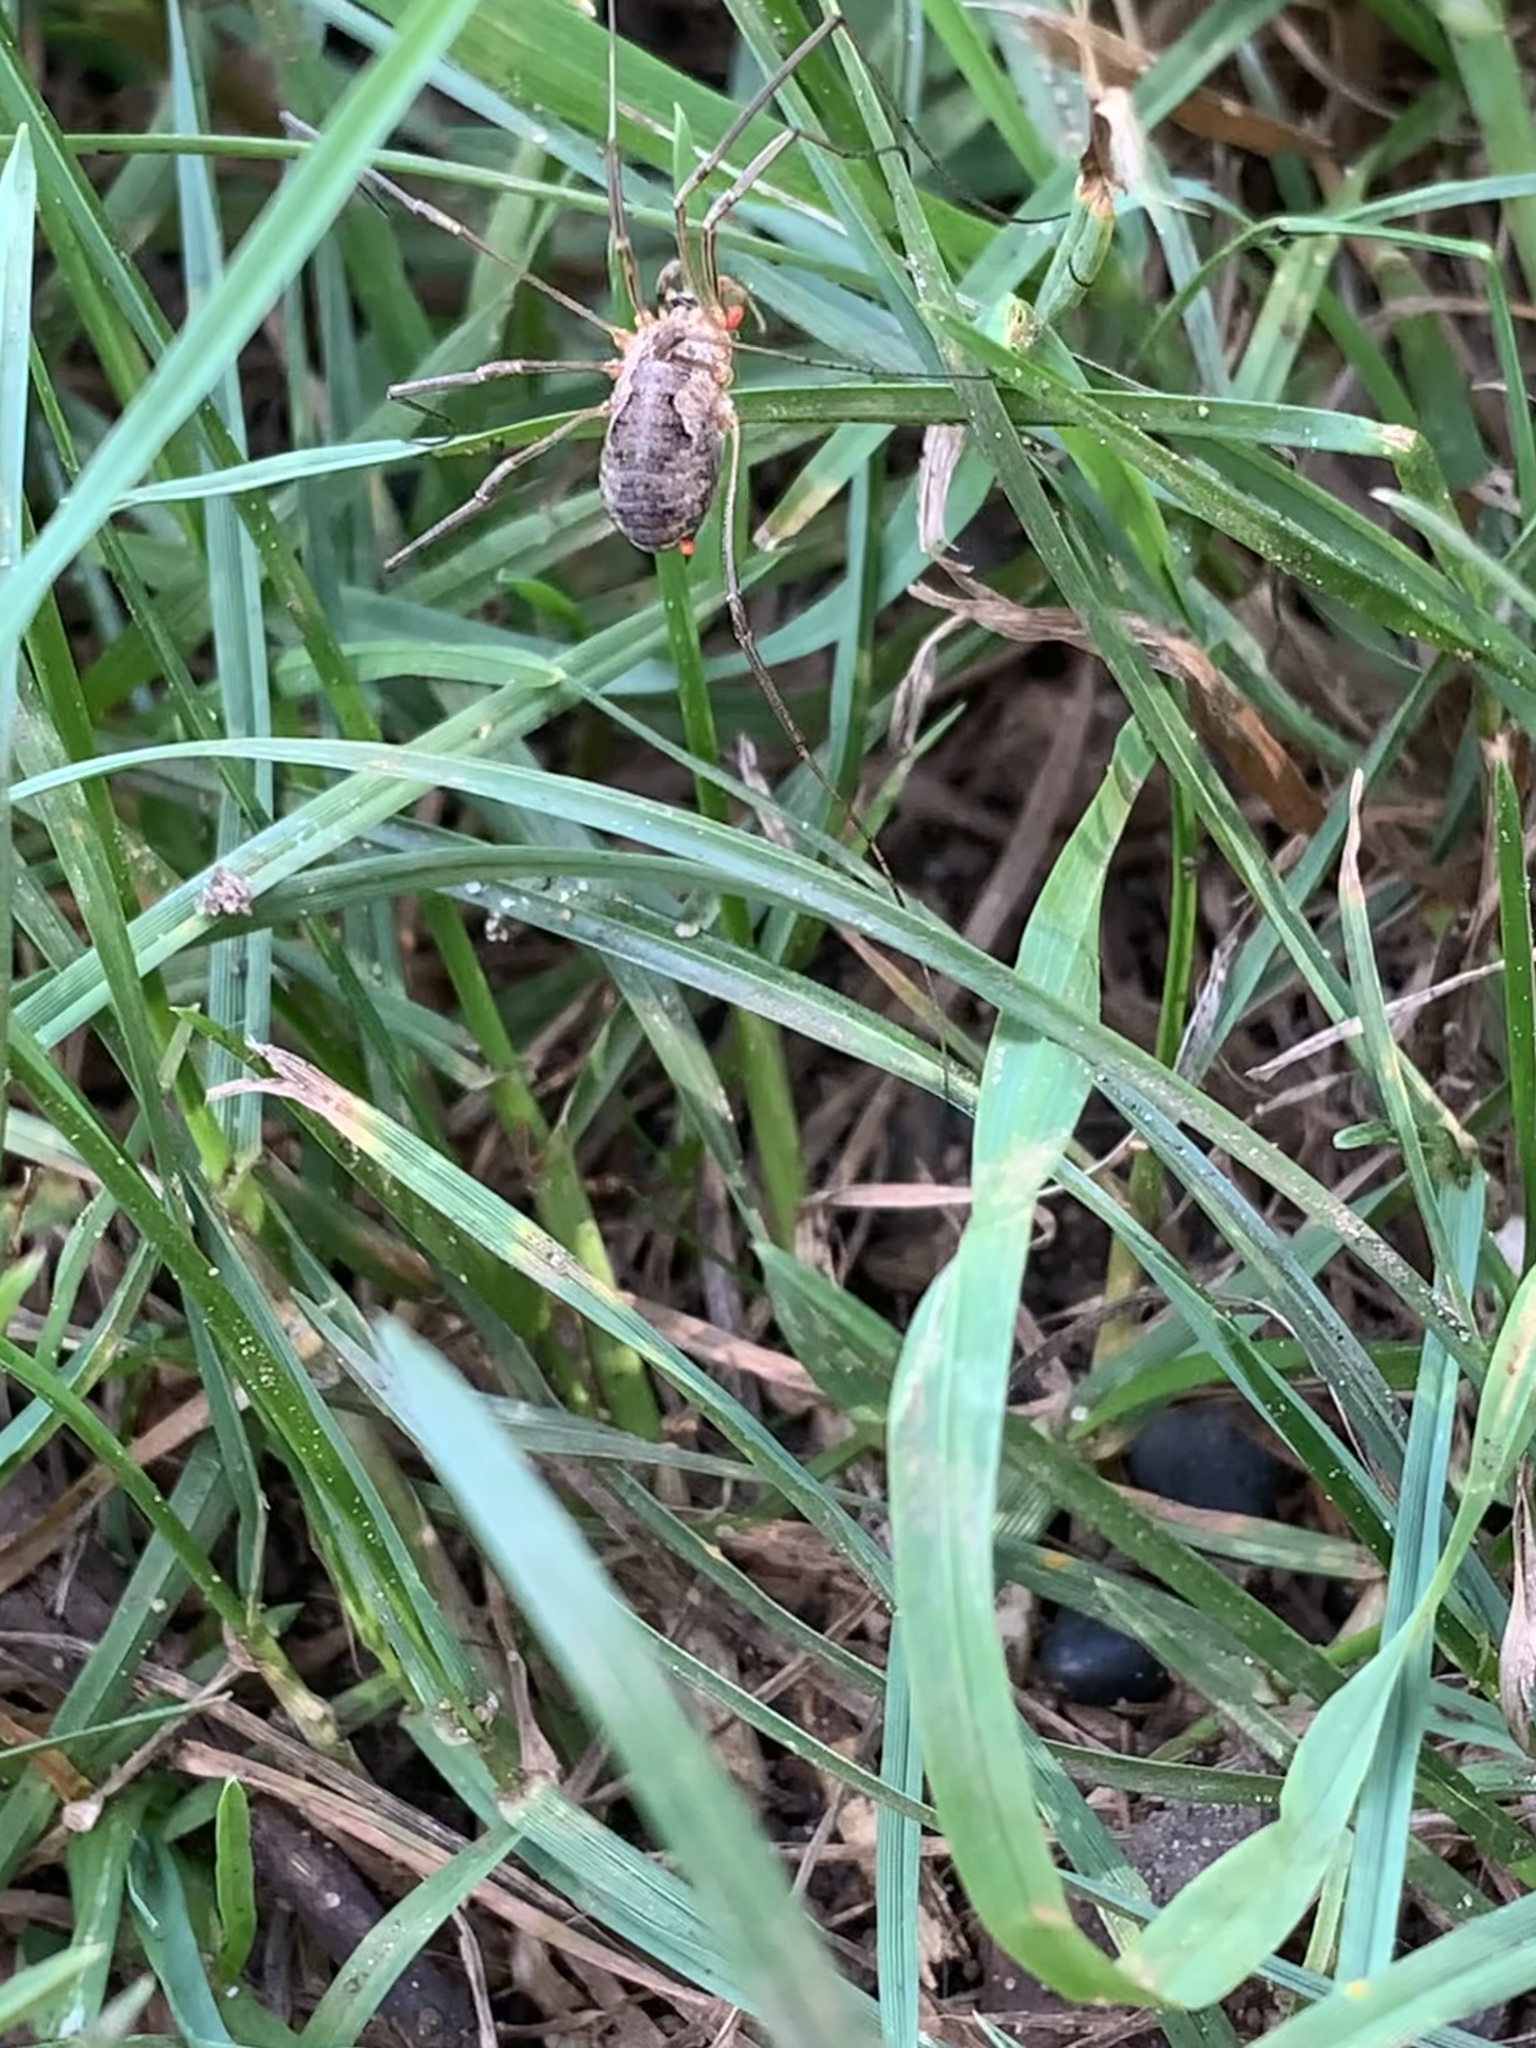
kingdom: Animalia
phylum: Arthropoda
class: Arachnida
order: Opiliones
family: Phalangiidae
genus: Phalangium
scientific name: Phalangium opilio
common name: Daddy longleg
